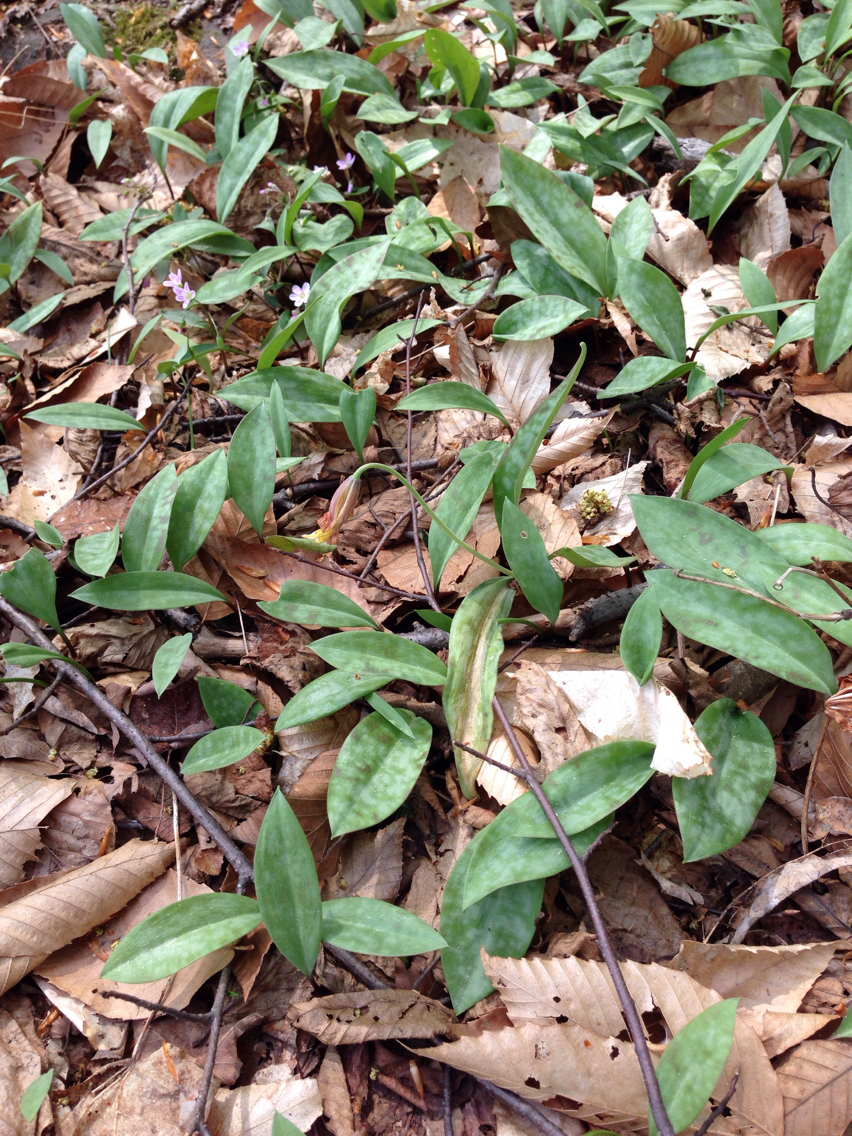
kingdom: Plantae
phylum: Tracheophyta
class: Liliopsida
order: Liliales
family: Liliaceae
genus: Erythronium
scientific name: Erythronium americanum
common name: Yellow adder's-tongue
